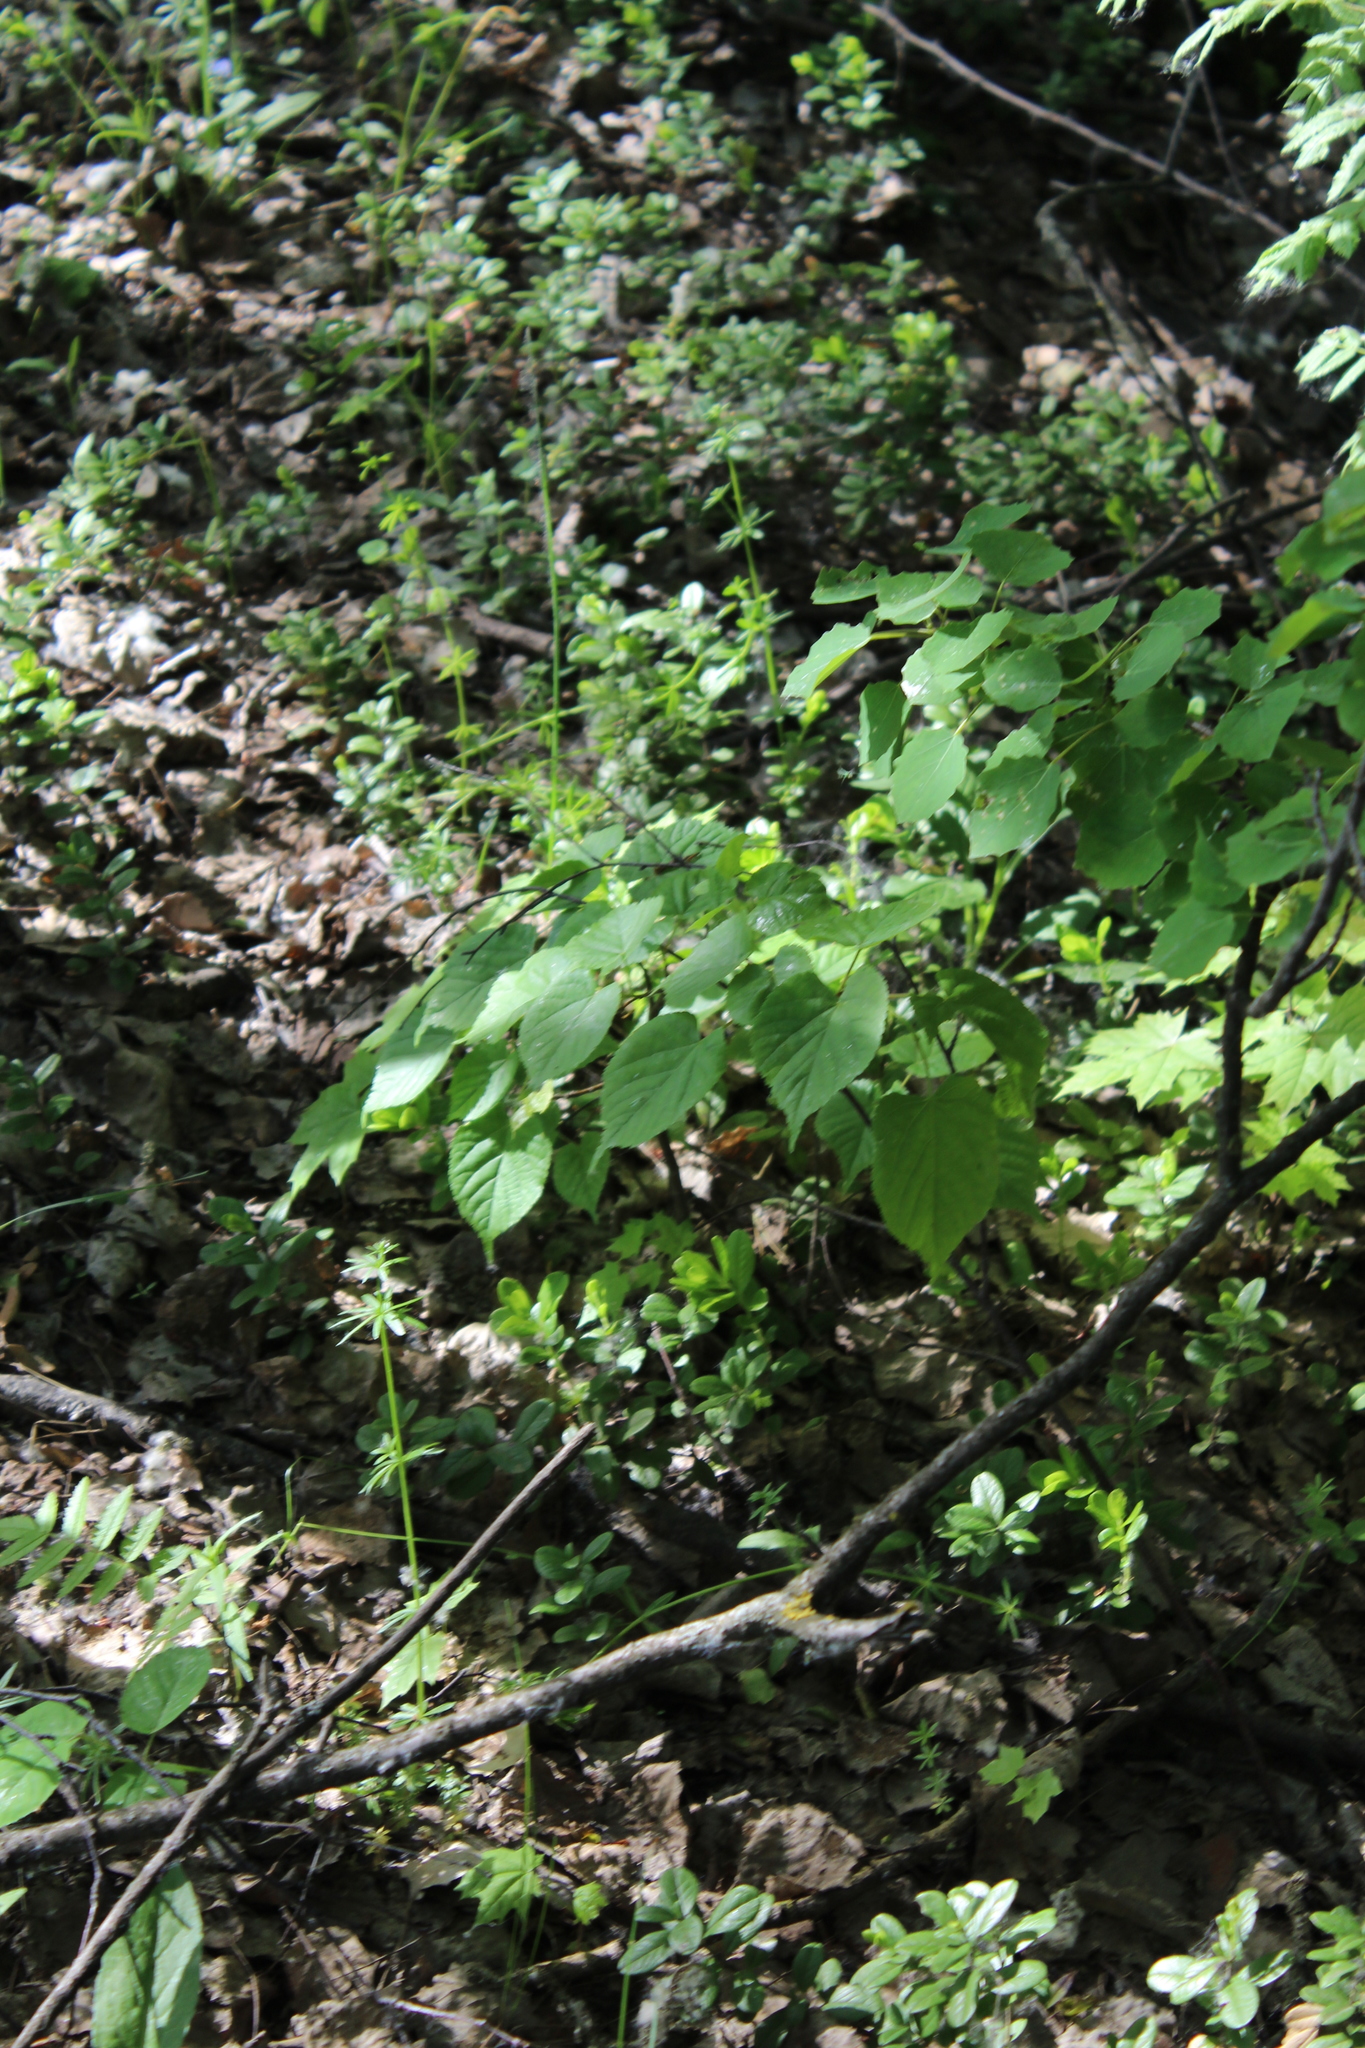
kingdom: Plantae
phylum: Tracheophyta
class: Magnoliopsida
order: Malvales
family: Malvaceae
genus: Tilia
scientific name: Tilia cordata
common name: Small-leaved lime
